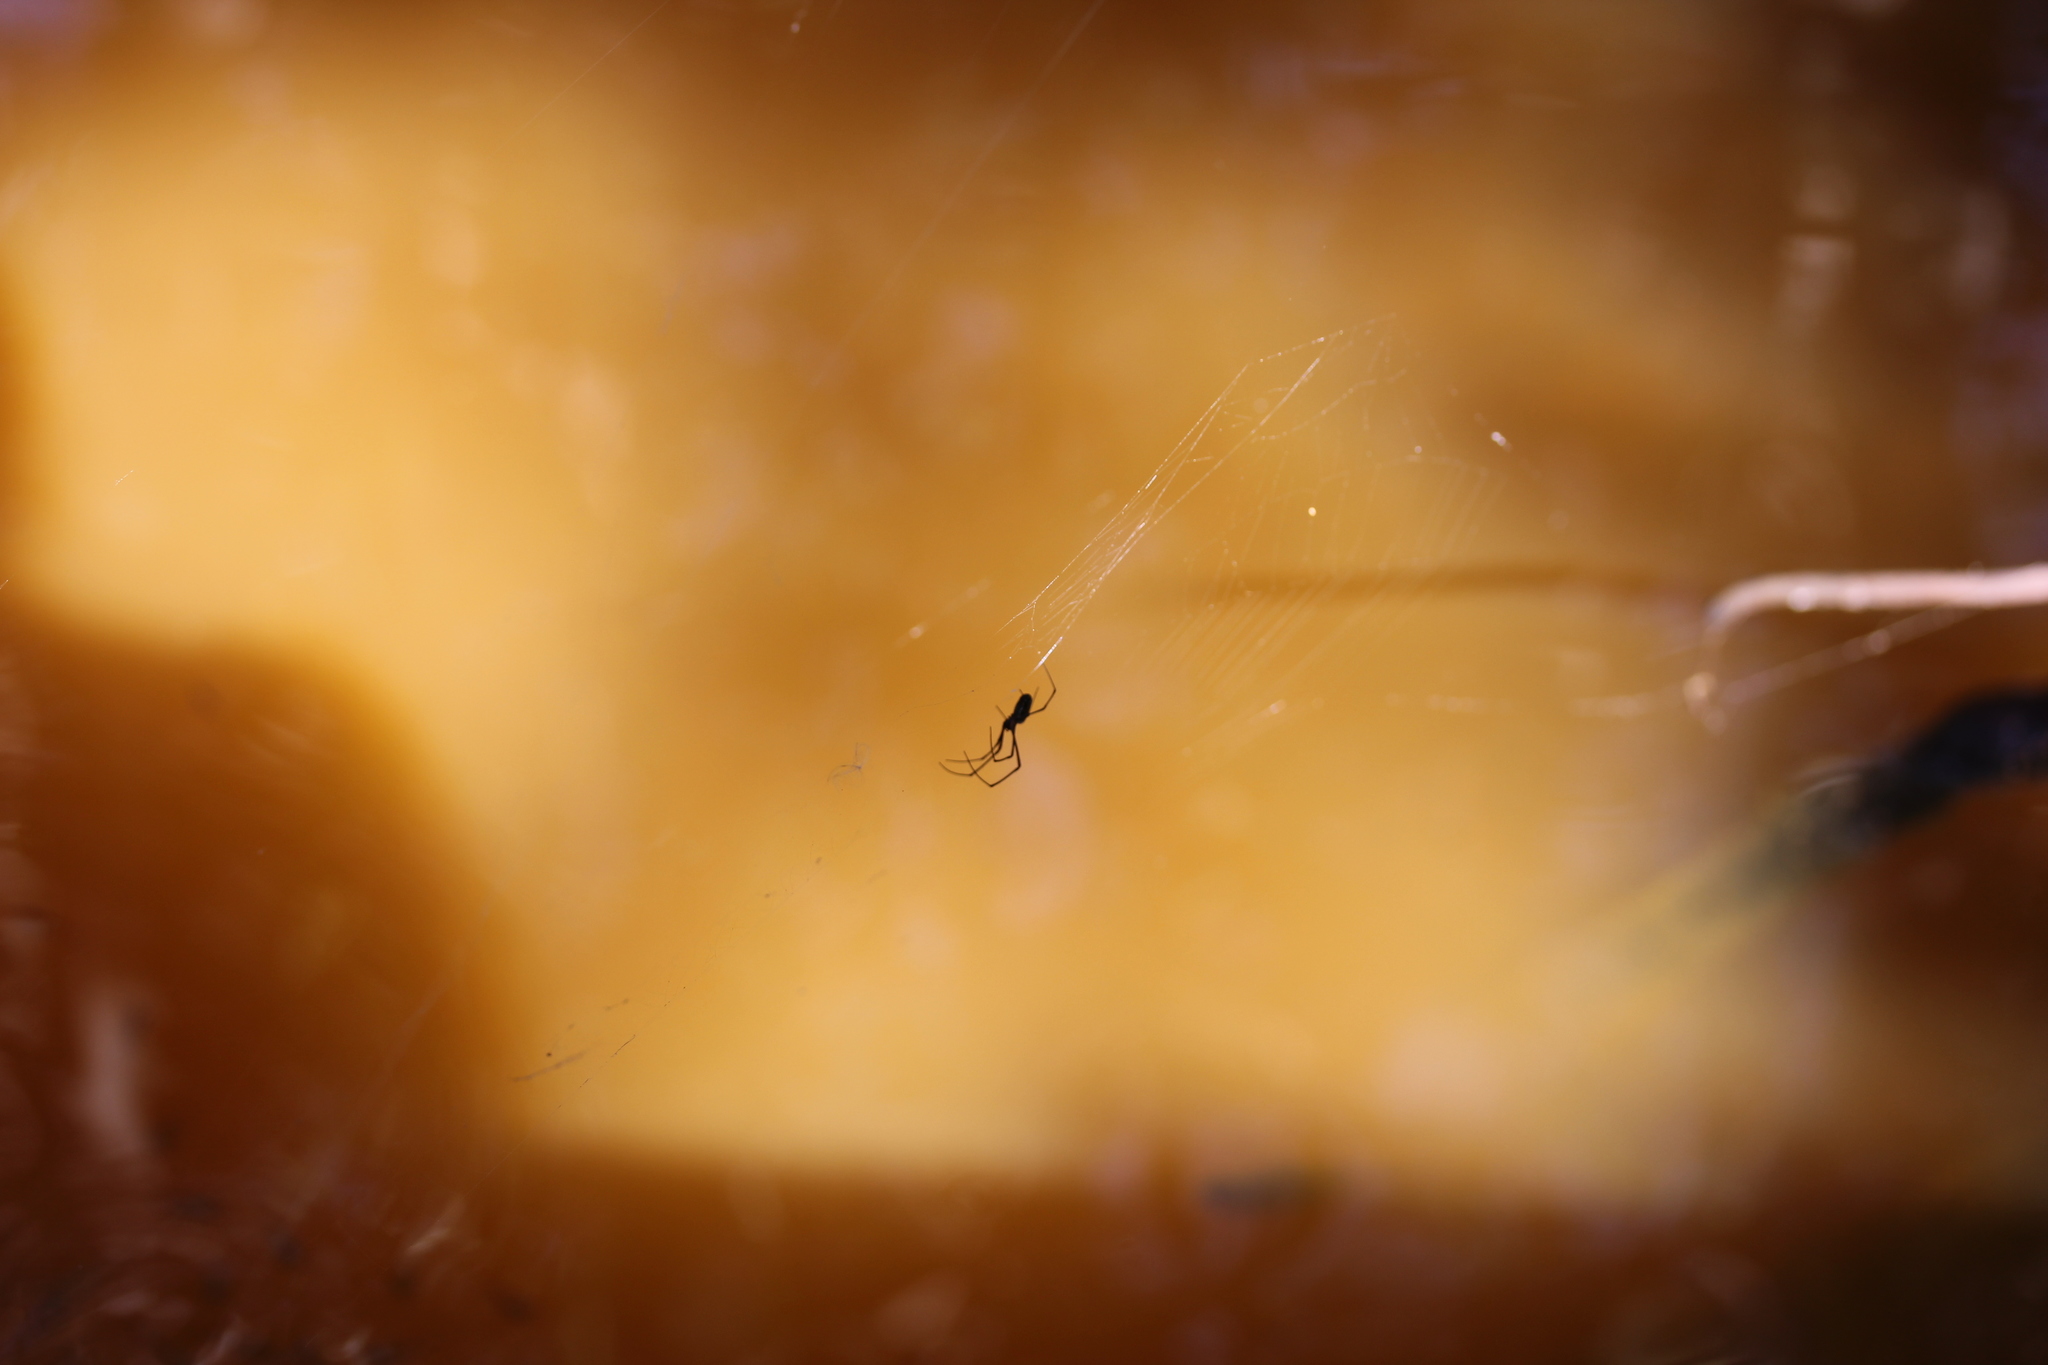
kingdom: Animalia
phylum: Arthropoda
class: Arachnida
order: Araneae
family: Tetragnathidae
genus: Leucauge
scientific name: Leucauge argyra
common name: Longjawed orb weavers
